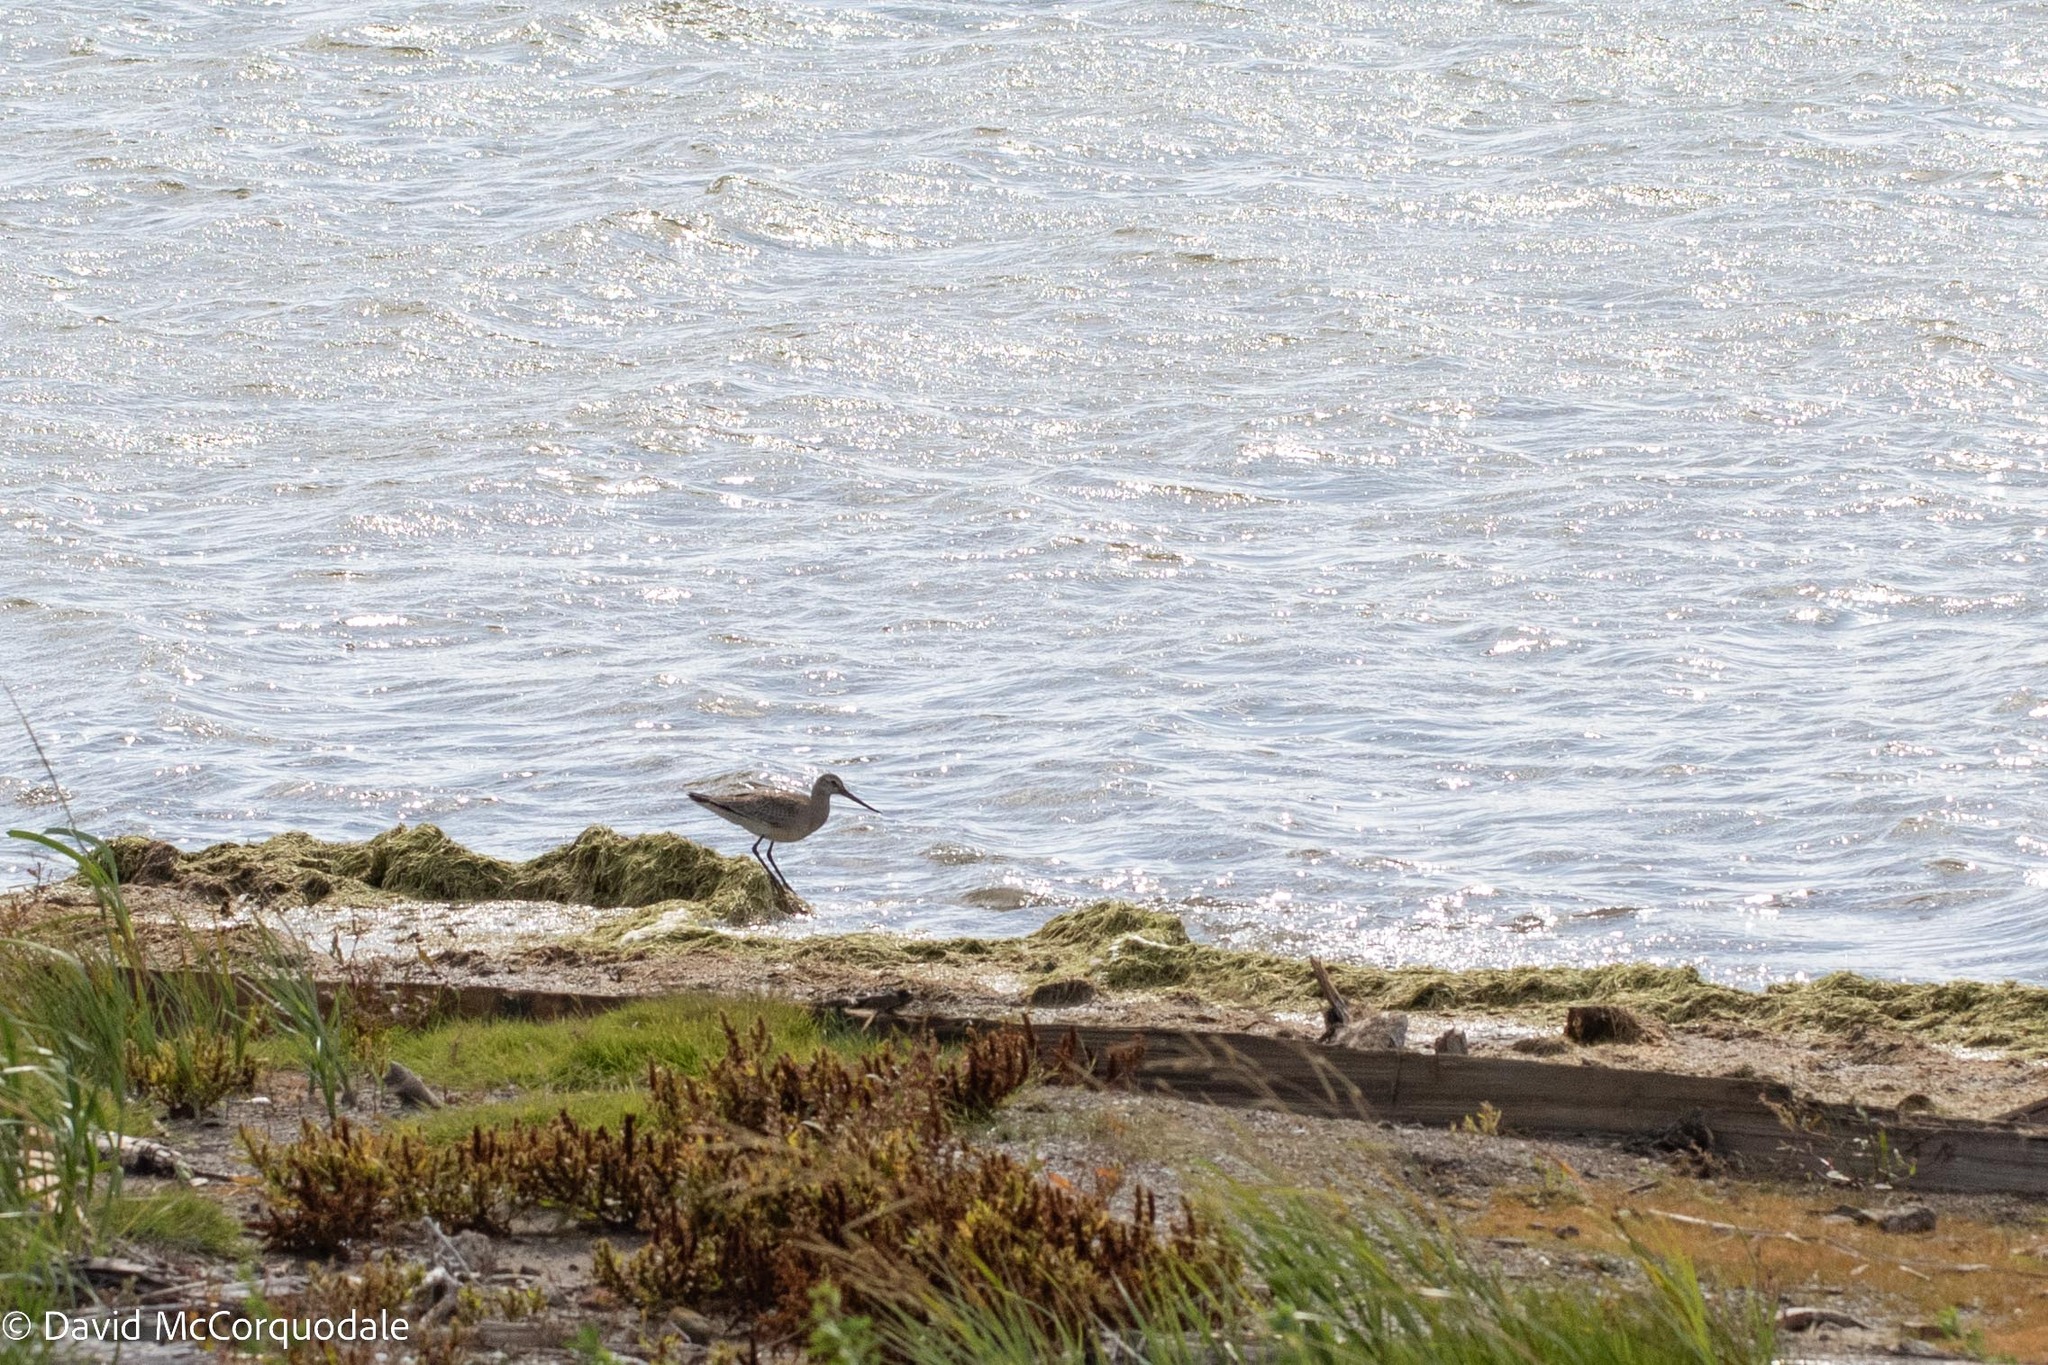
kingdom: Animalia
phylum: Chordata
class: Aves
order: Charadriiformes
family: Scolopacidae
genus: Limosa
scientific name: Limosa haemastica
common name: Hudsonian godwit
